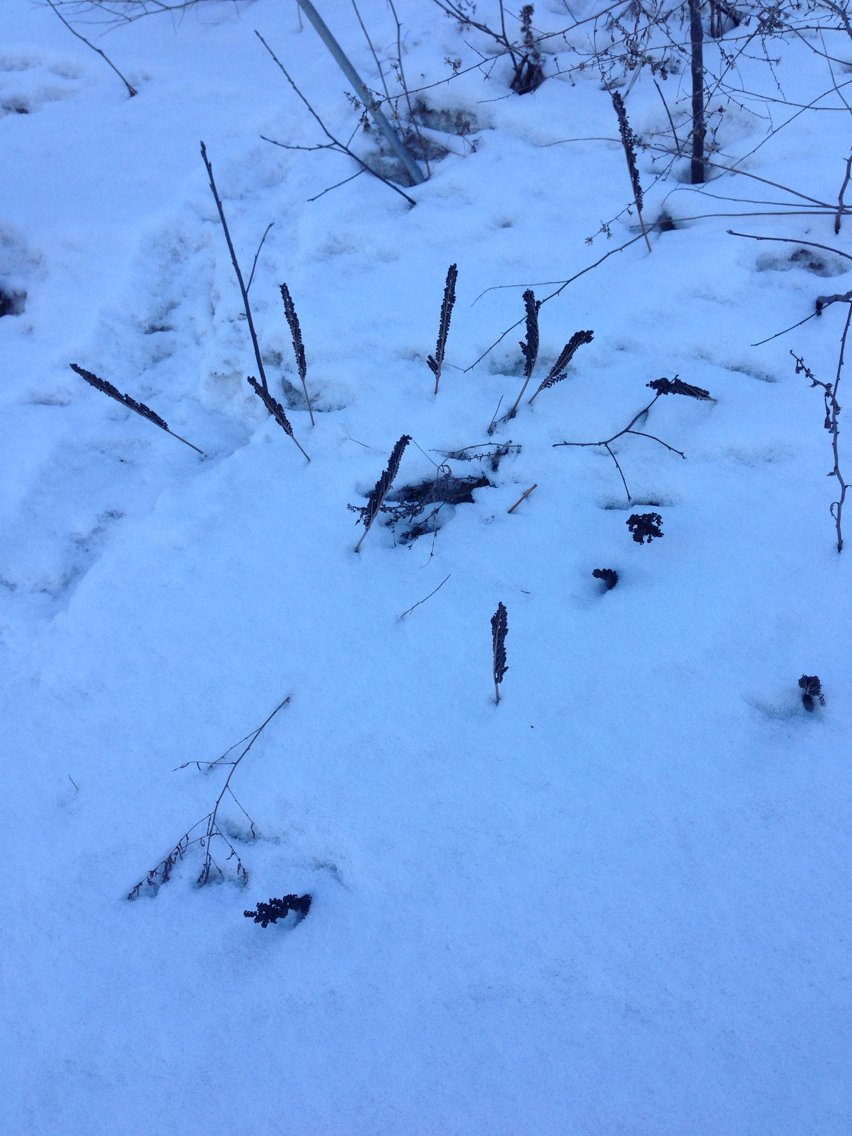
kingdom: Plantae
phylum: Tracheophyta
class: Polypodiopsida
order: Polypodiales
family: Onocleaceae
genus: Onoclea
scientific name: Onoclea sensibilis
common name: Sensitive fern
